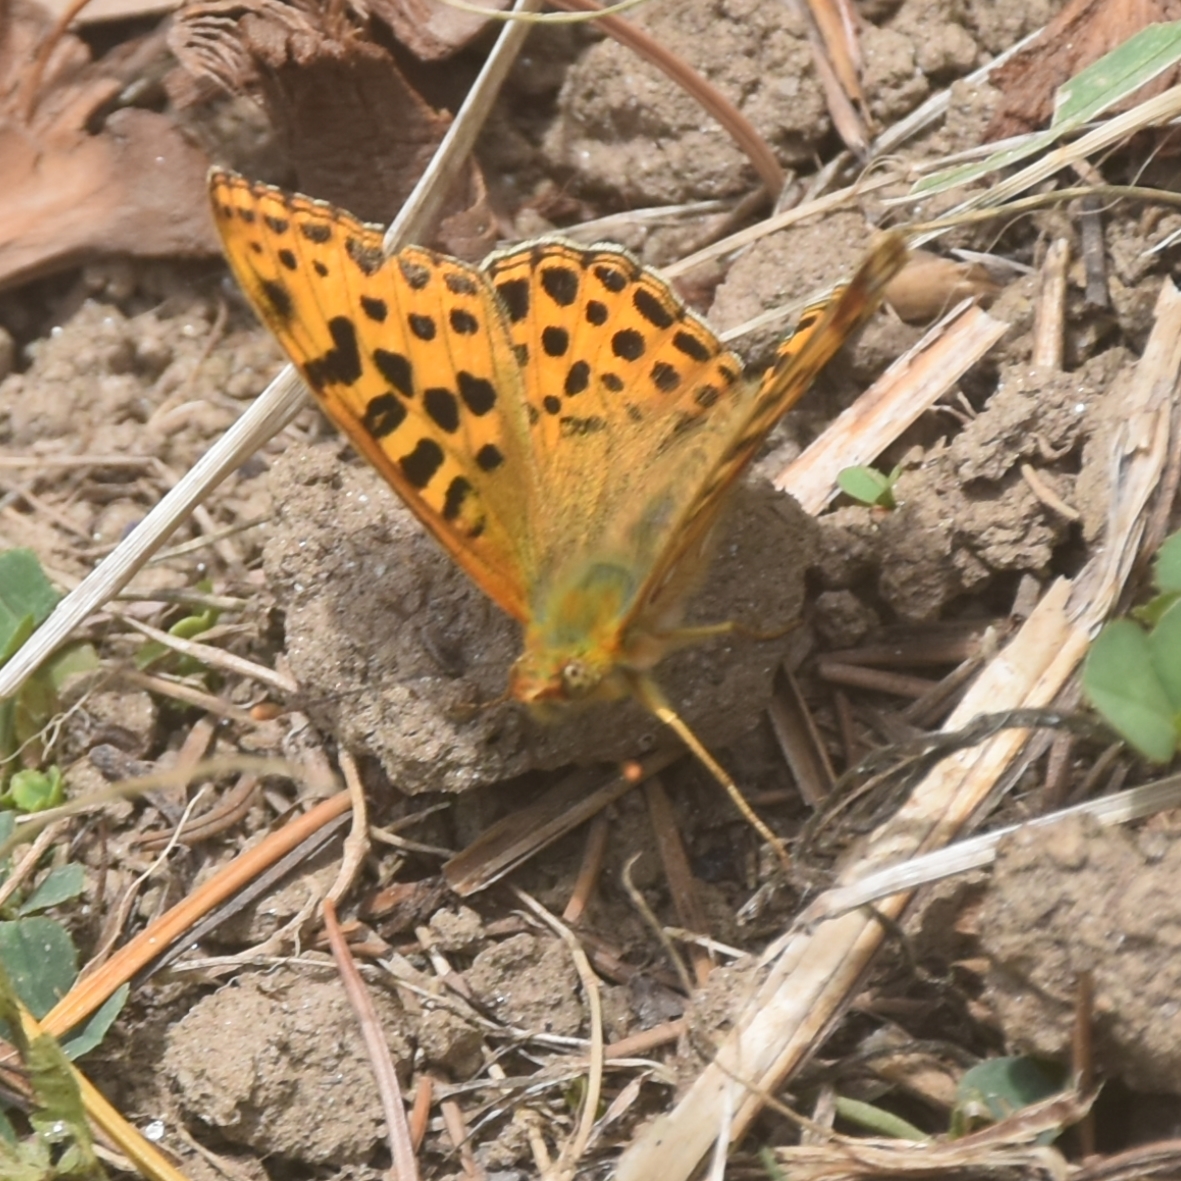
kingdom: Animalia
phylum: Arthropoda
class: Insecta
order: Lepidoptera
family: Nymphalidae
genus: Issoria
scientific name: Issoria
